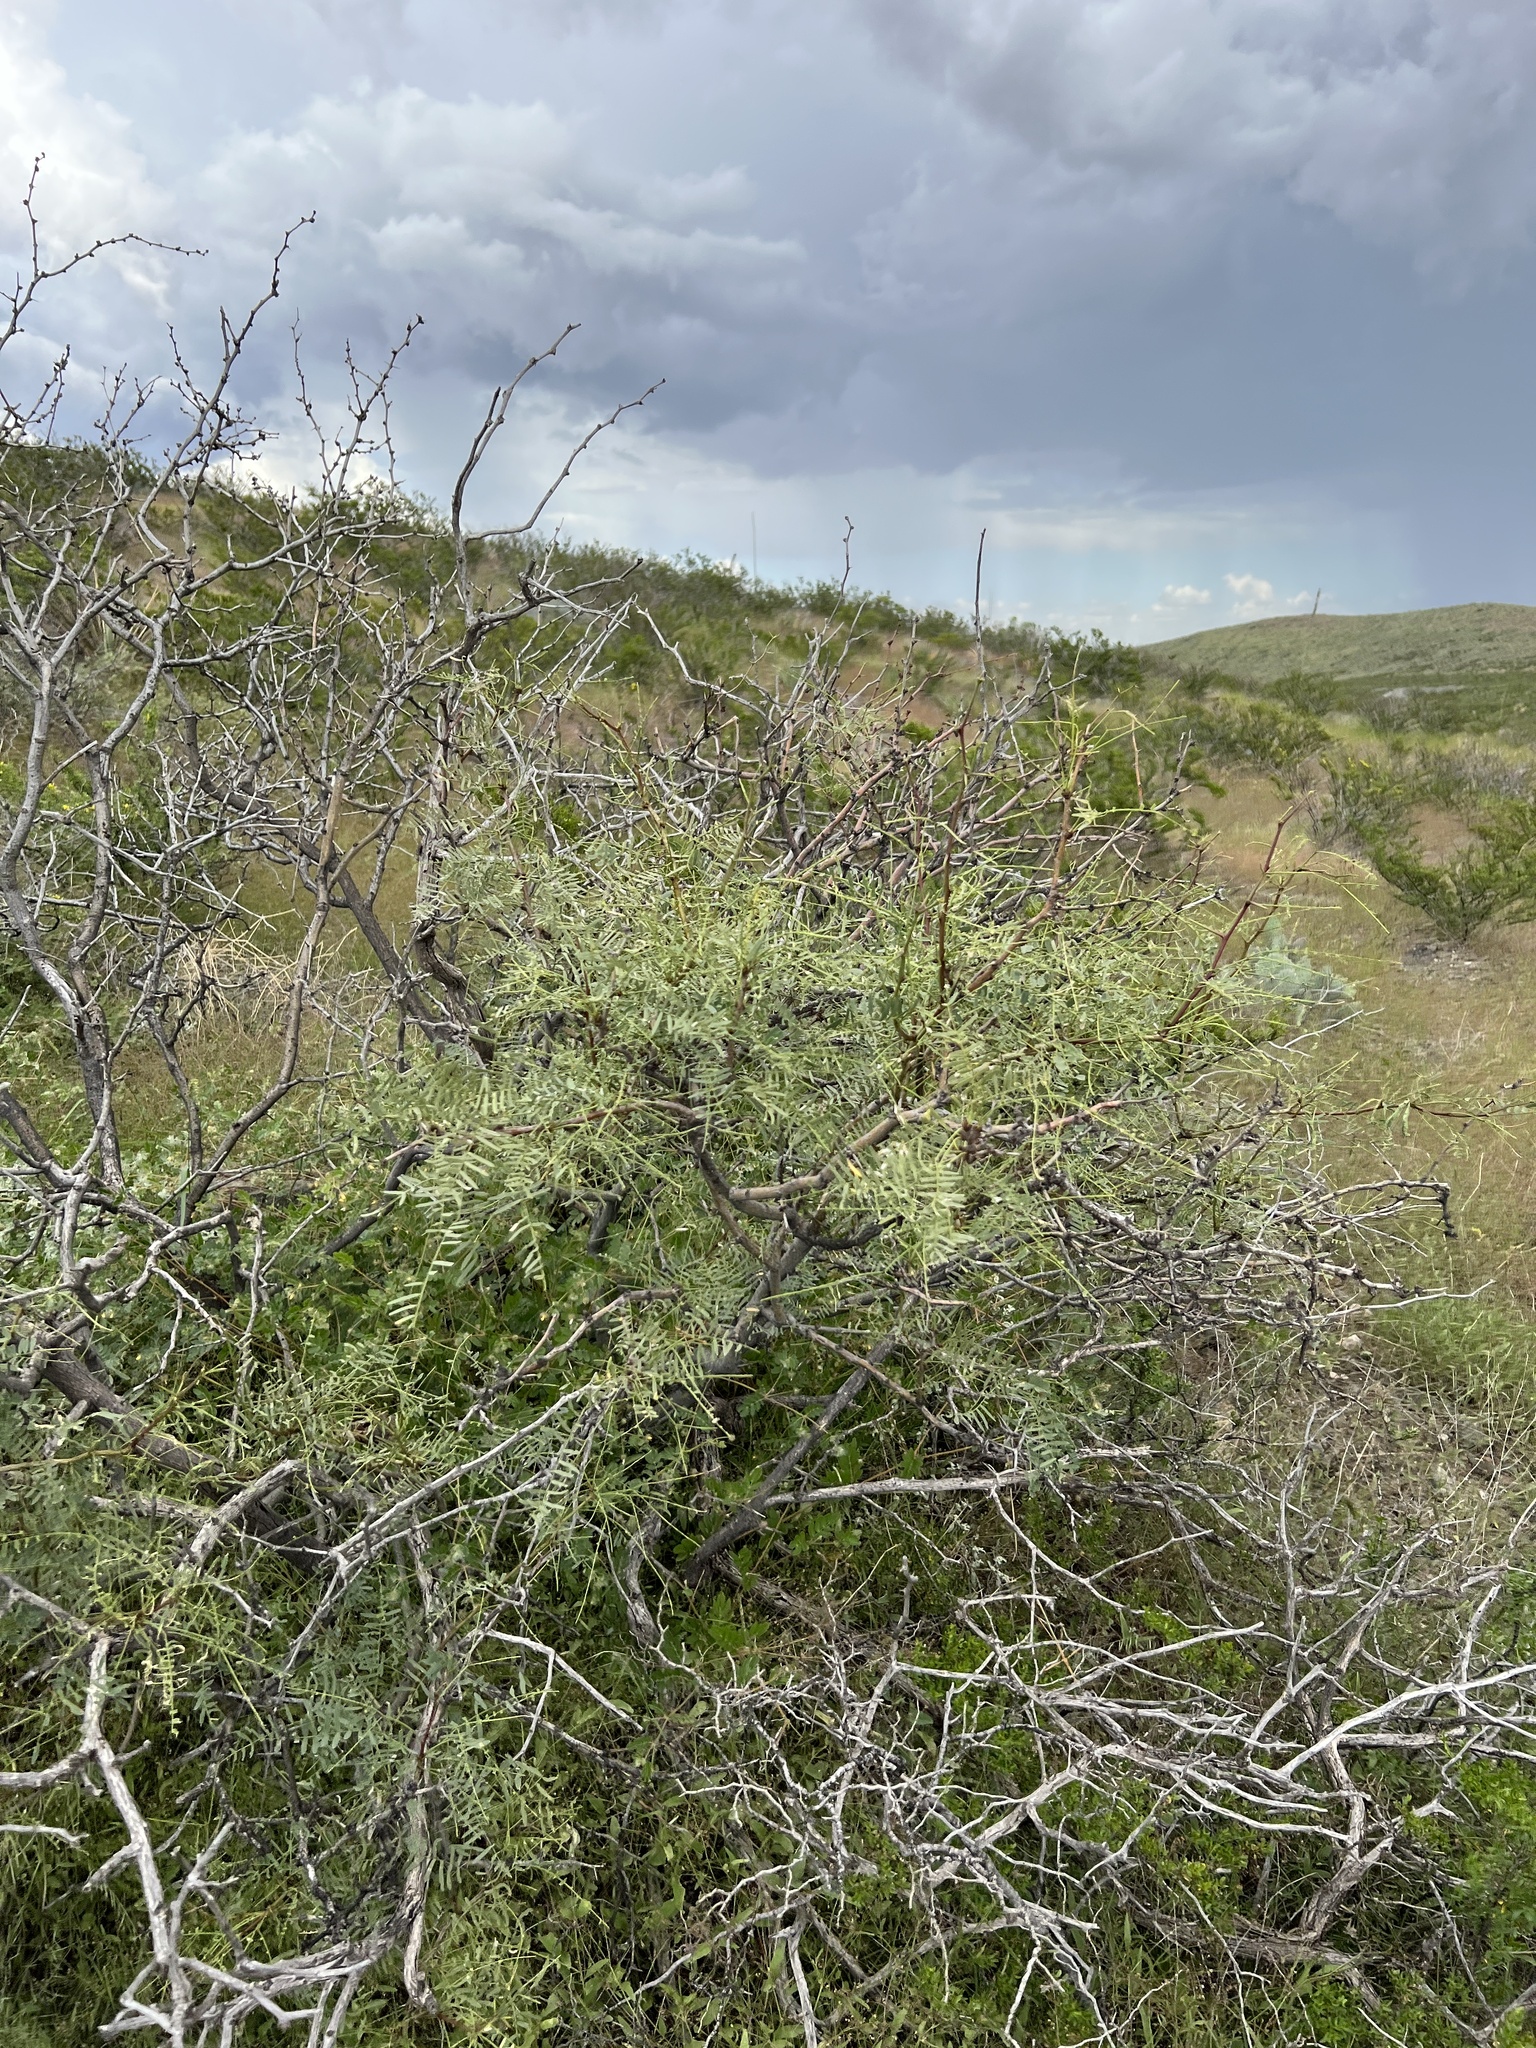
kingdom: Plantae
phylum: Tracheophyta
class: Magnoliopsida
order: Fabales
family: Fabaceae
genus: Prosopis
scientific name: Prosopis glandulosa
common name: Honey mesquite
